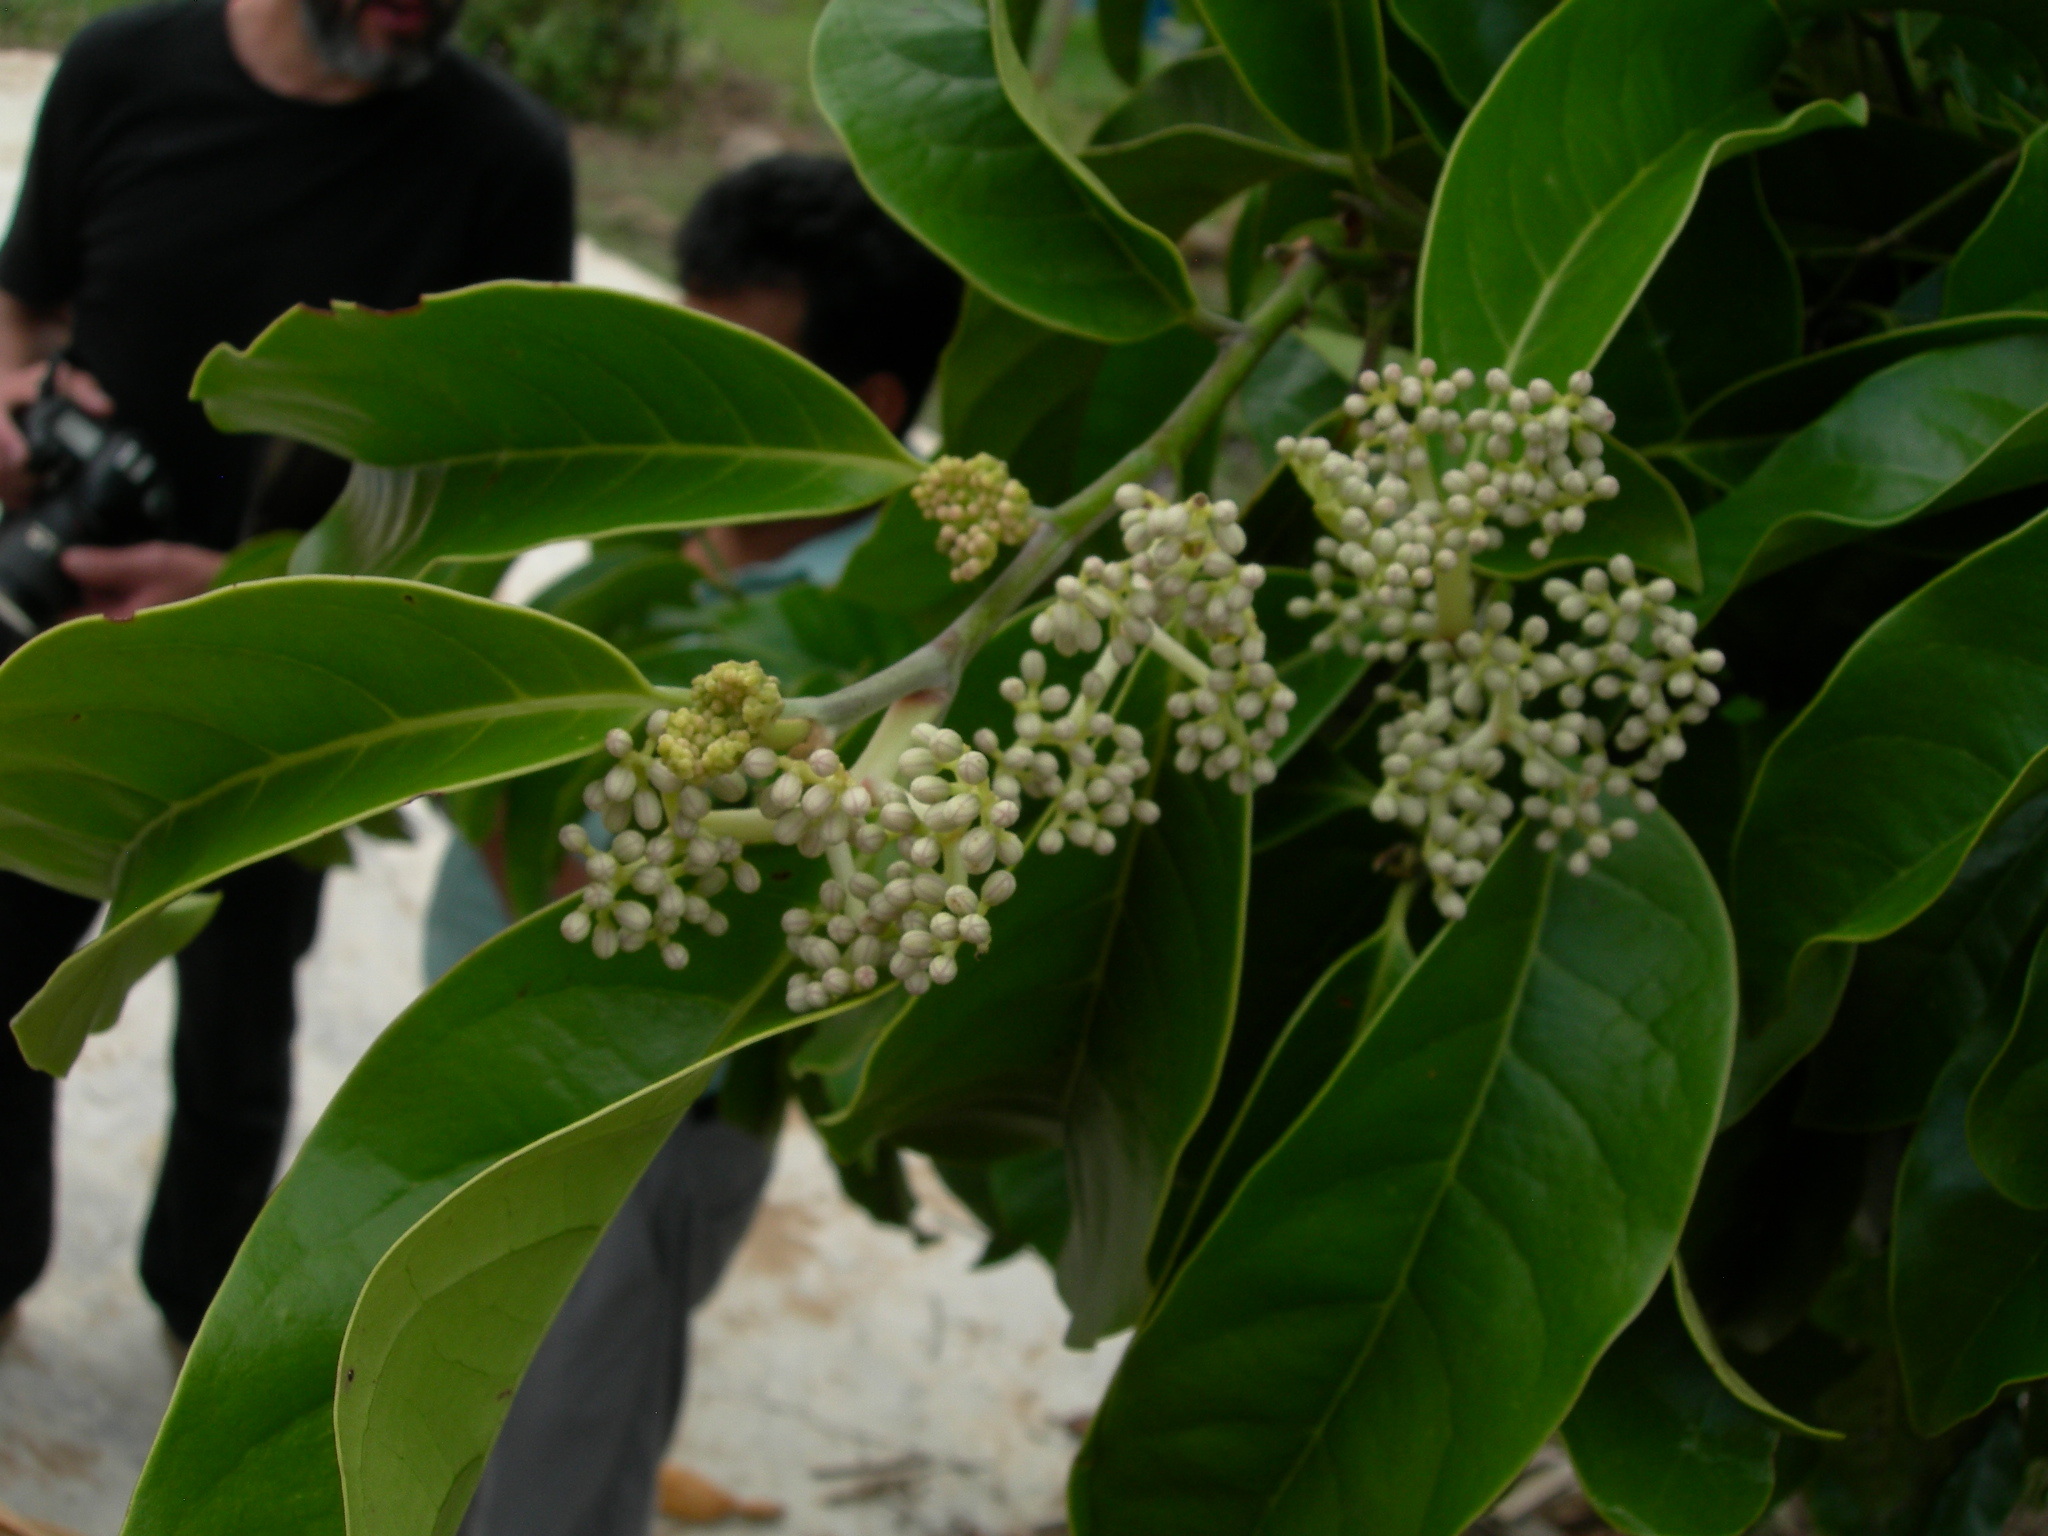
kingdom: Plantae
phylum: Tracheophyta
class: Magnoliopsida
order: Metteniusales
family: Metteniusaceae
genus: Oecopetalum
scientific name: Oecopetalum mexicanum
